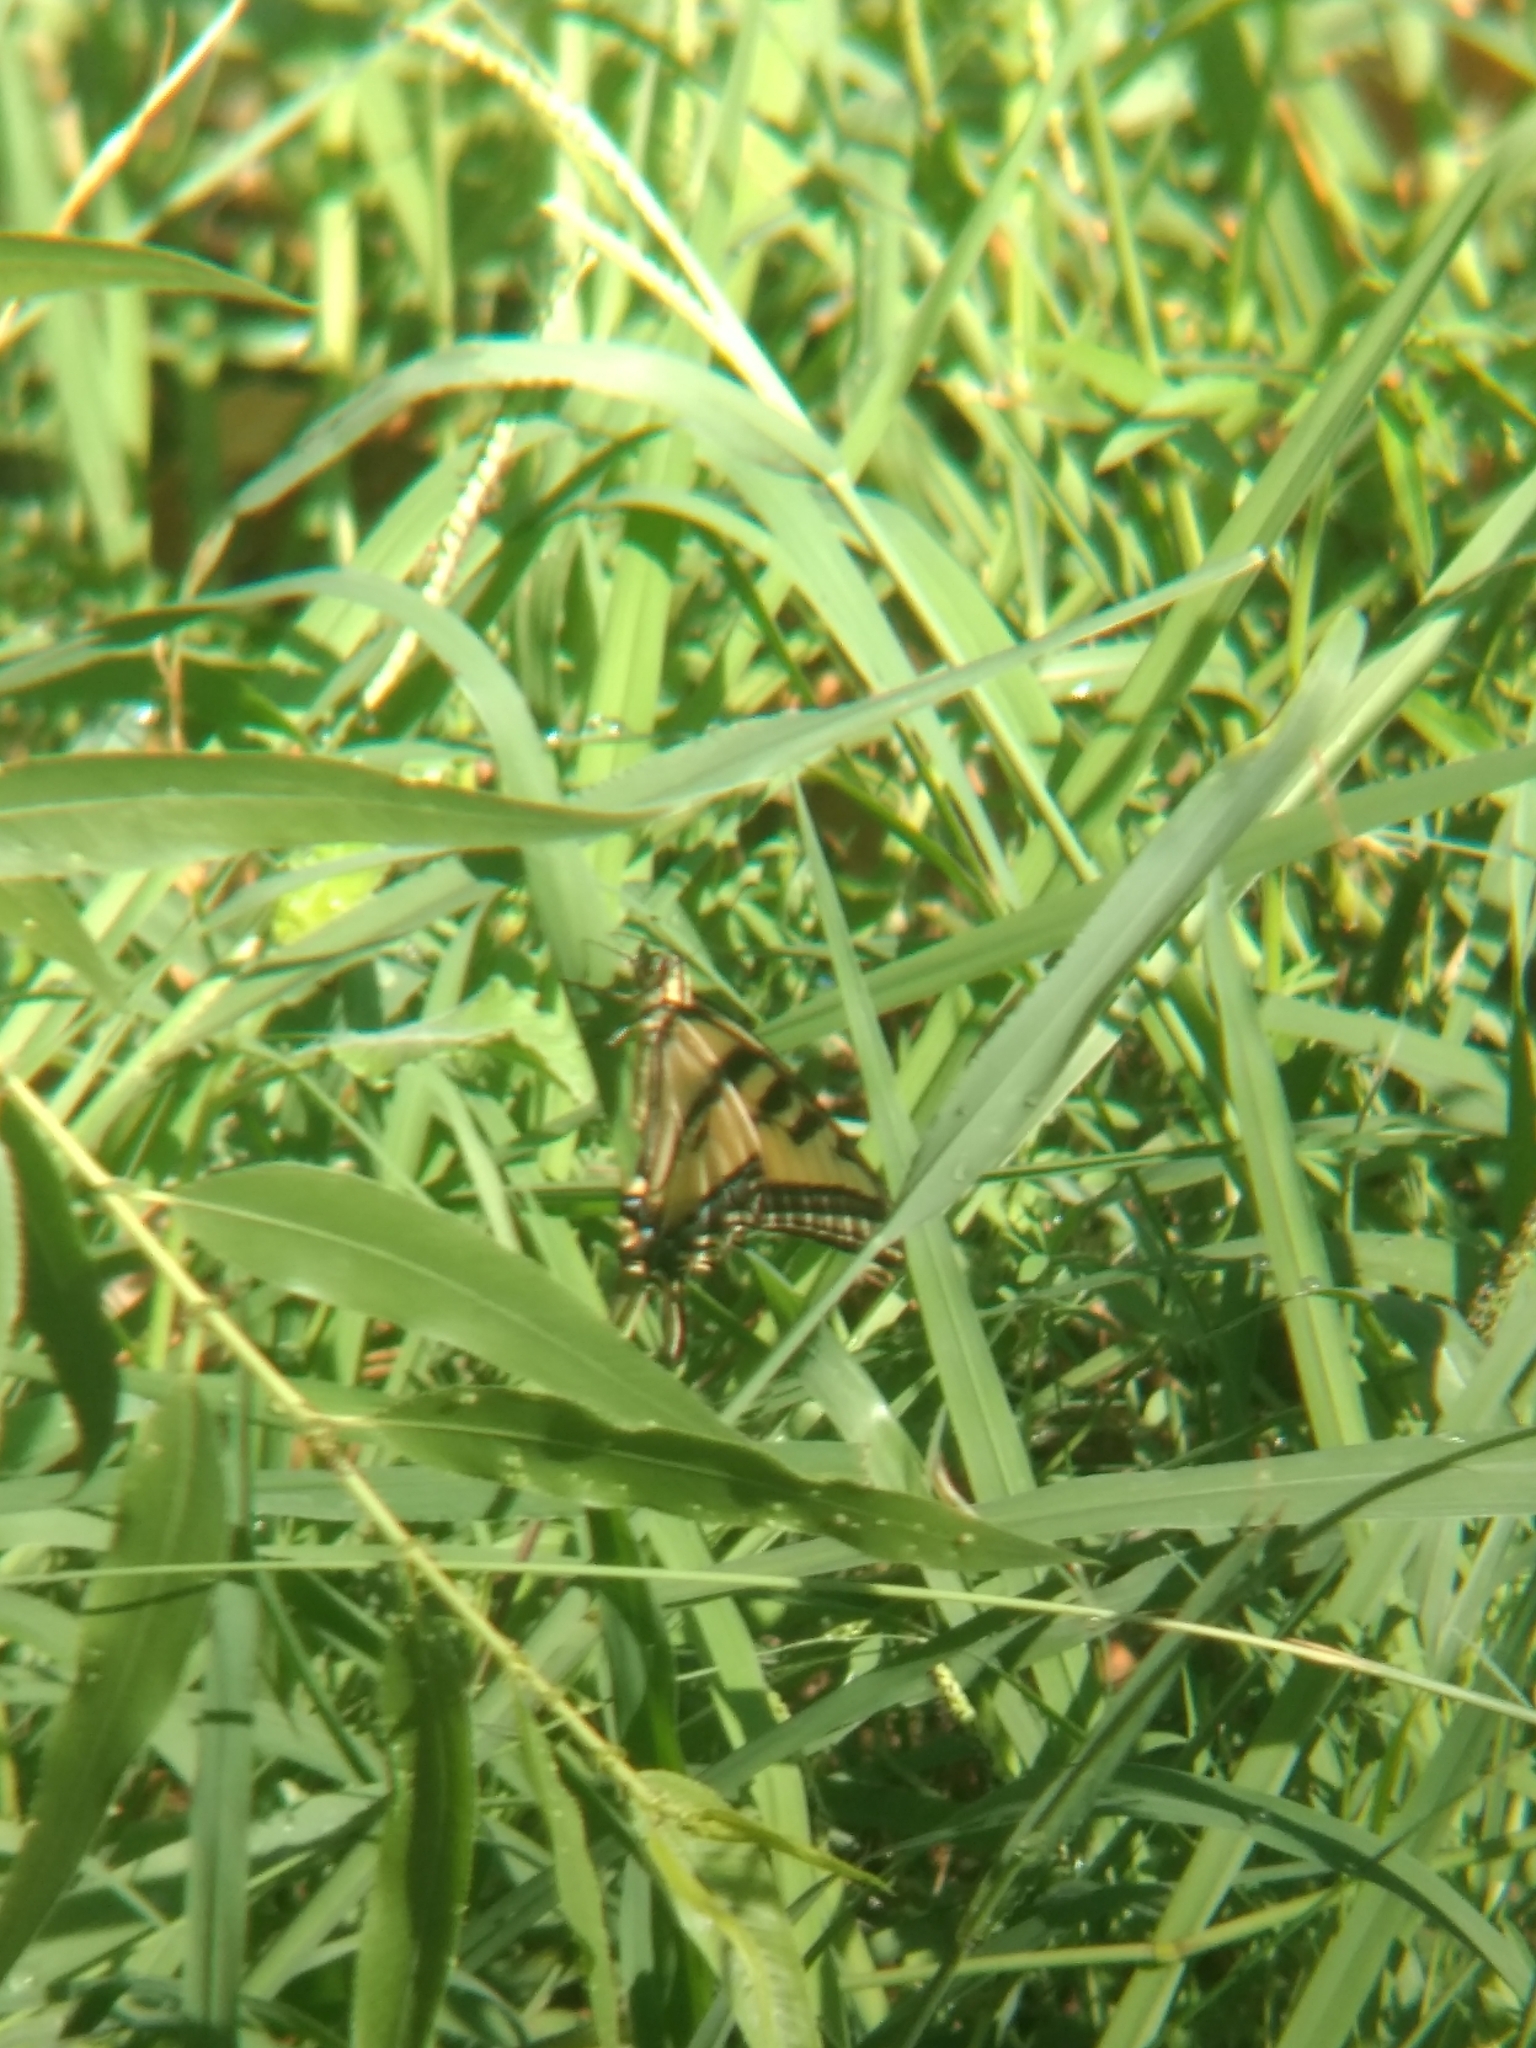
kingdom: Animalia
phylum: Arthropoda
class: Insecta
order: Lepidoptera
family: Papilionidae
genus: Papilio
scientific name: Papilio rutulus
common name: Western tiger swallowtail
